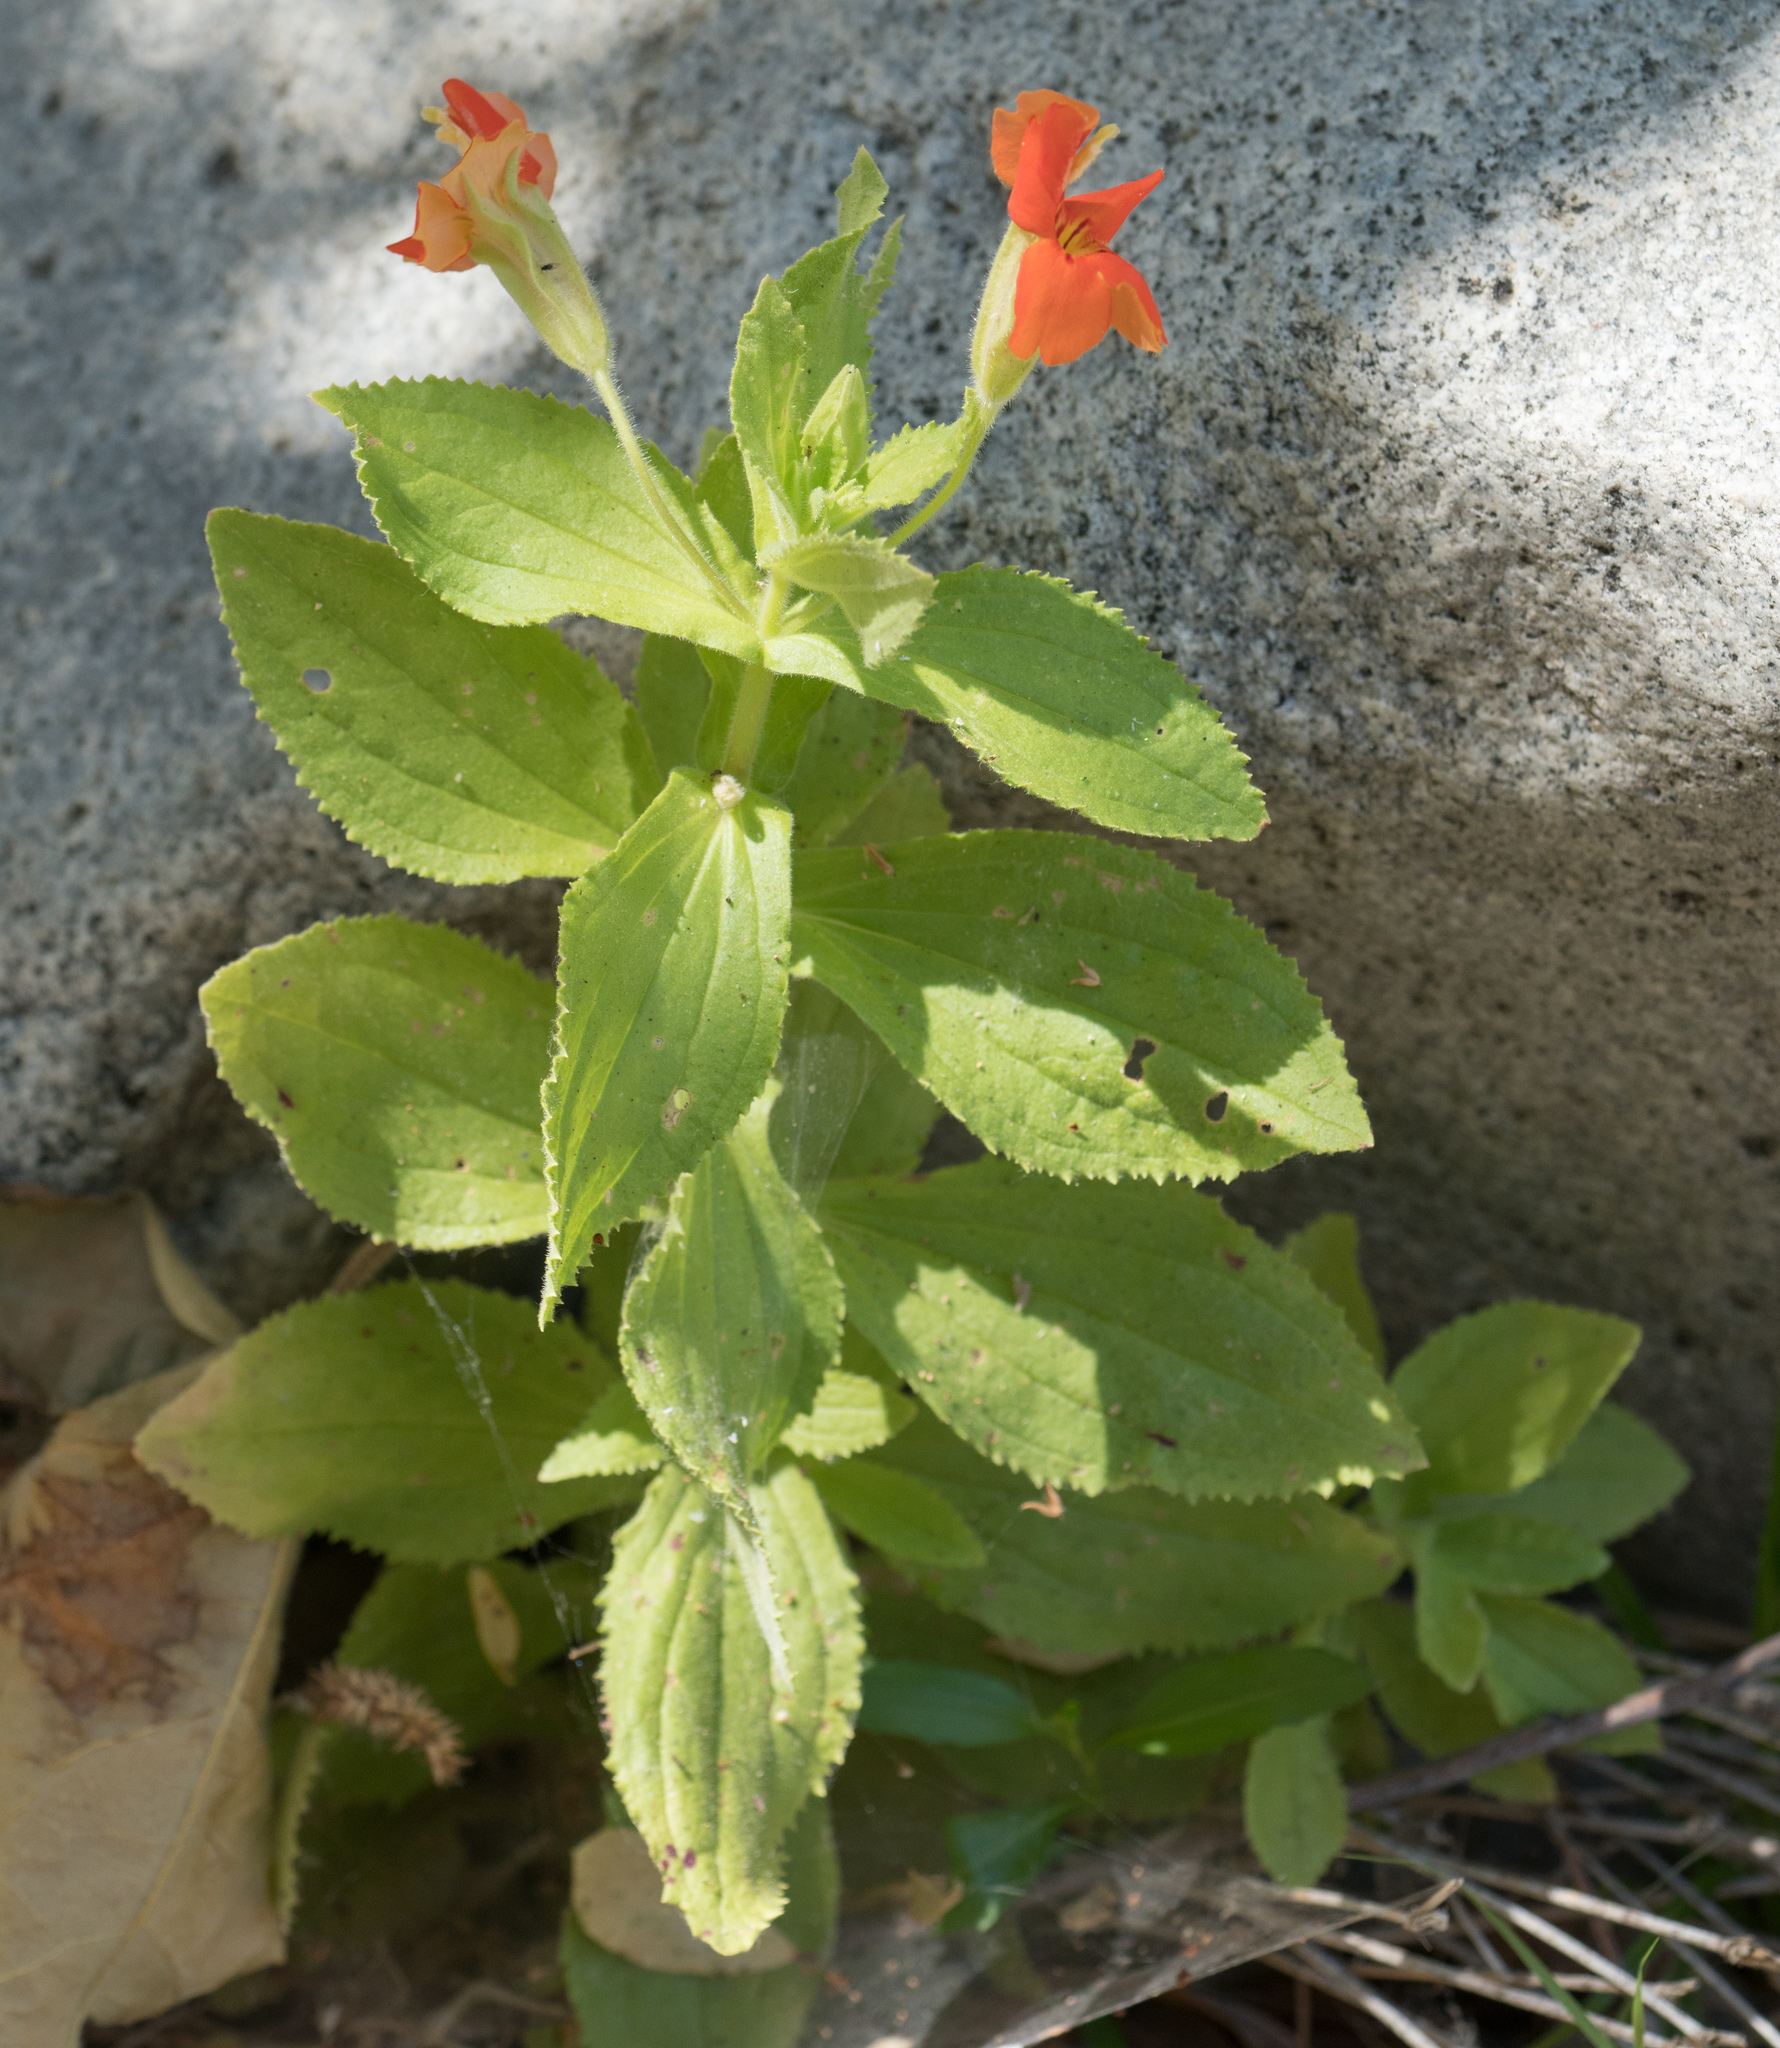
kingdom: Plantae
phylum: Tracheophyta
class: Magnoliopsida
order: Lamiales
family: Phrymaceae
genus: Erythranthe
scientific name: Erythranthe cardinalis
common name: Scarlet monkey-flower
